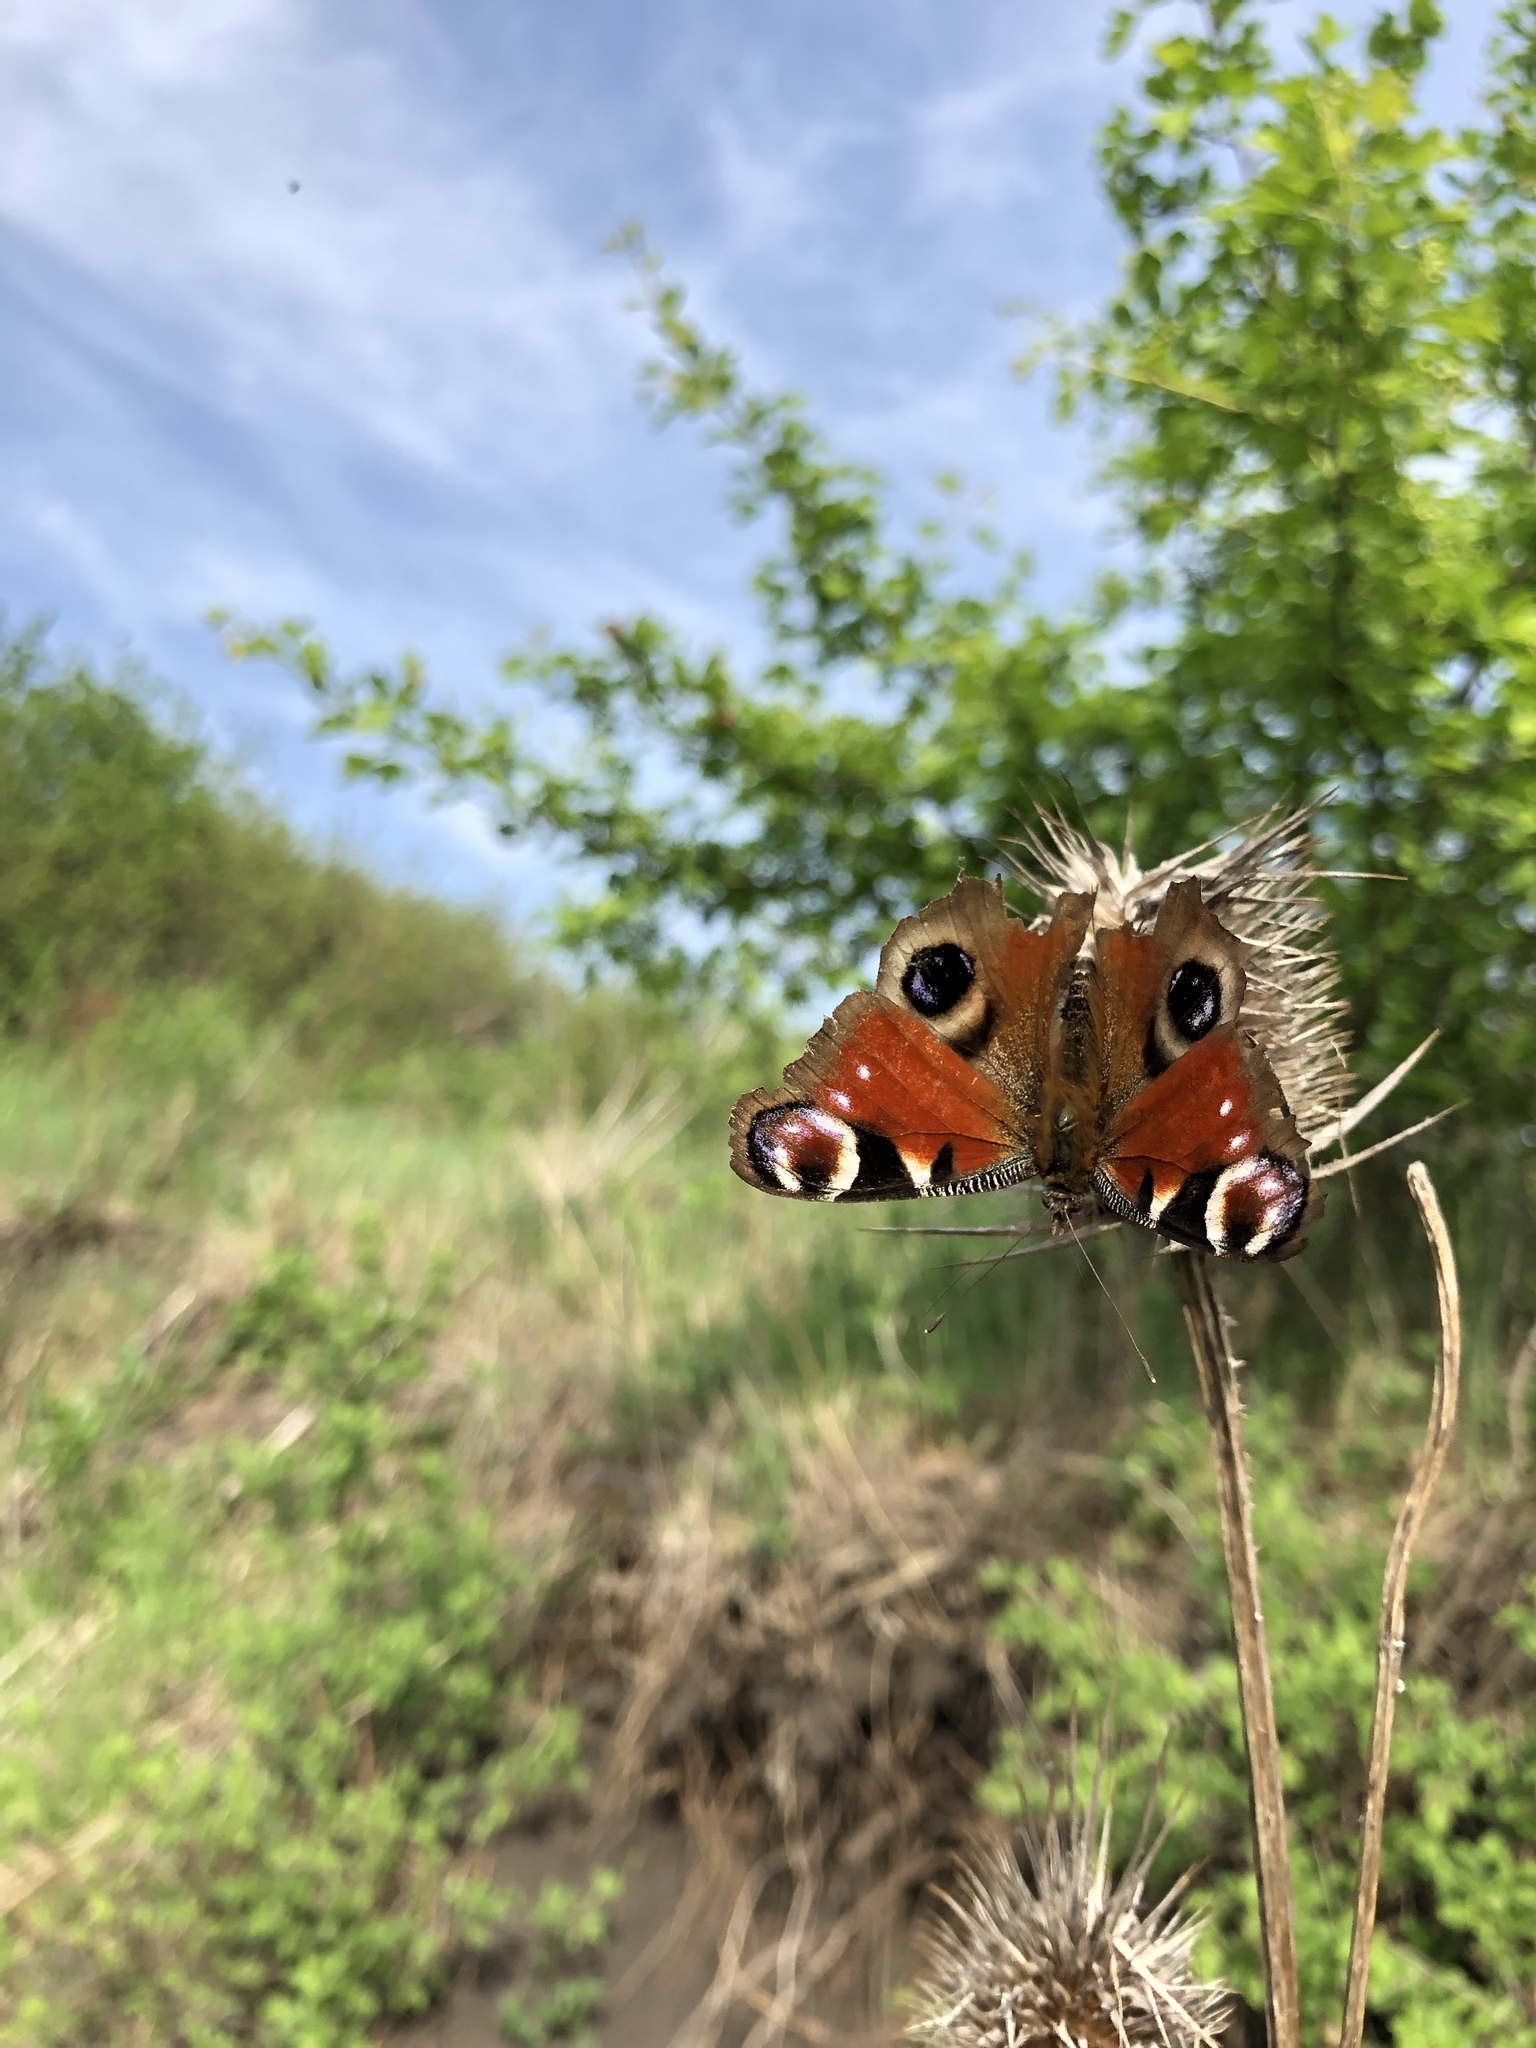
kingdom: Animalia
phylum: Arthropoda
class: Insecta
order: Lepidoptera
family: Nymphalidae
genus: Aglais
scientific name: Aglais io
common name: Peacock
